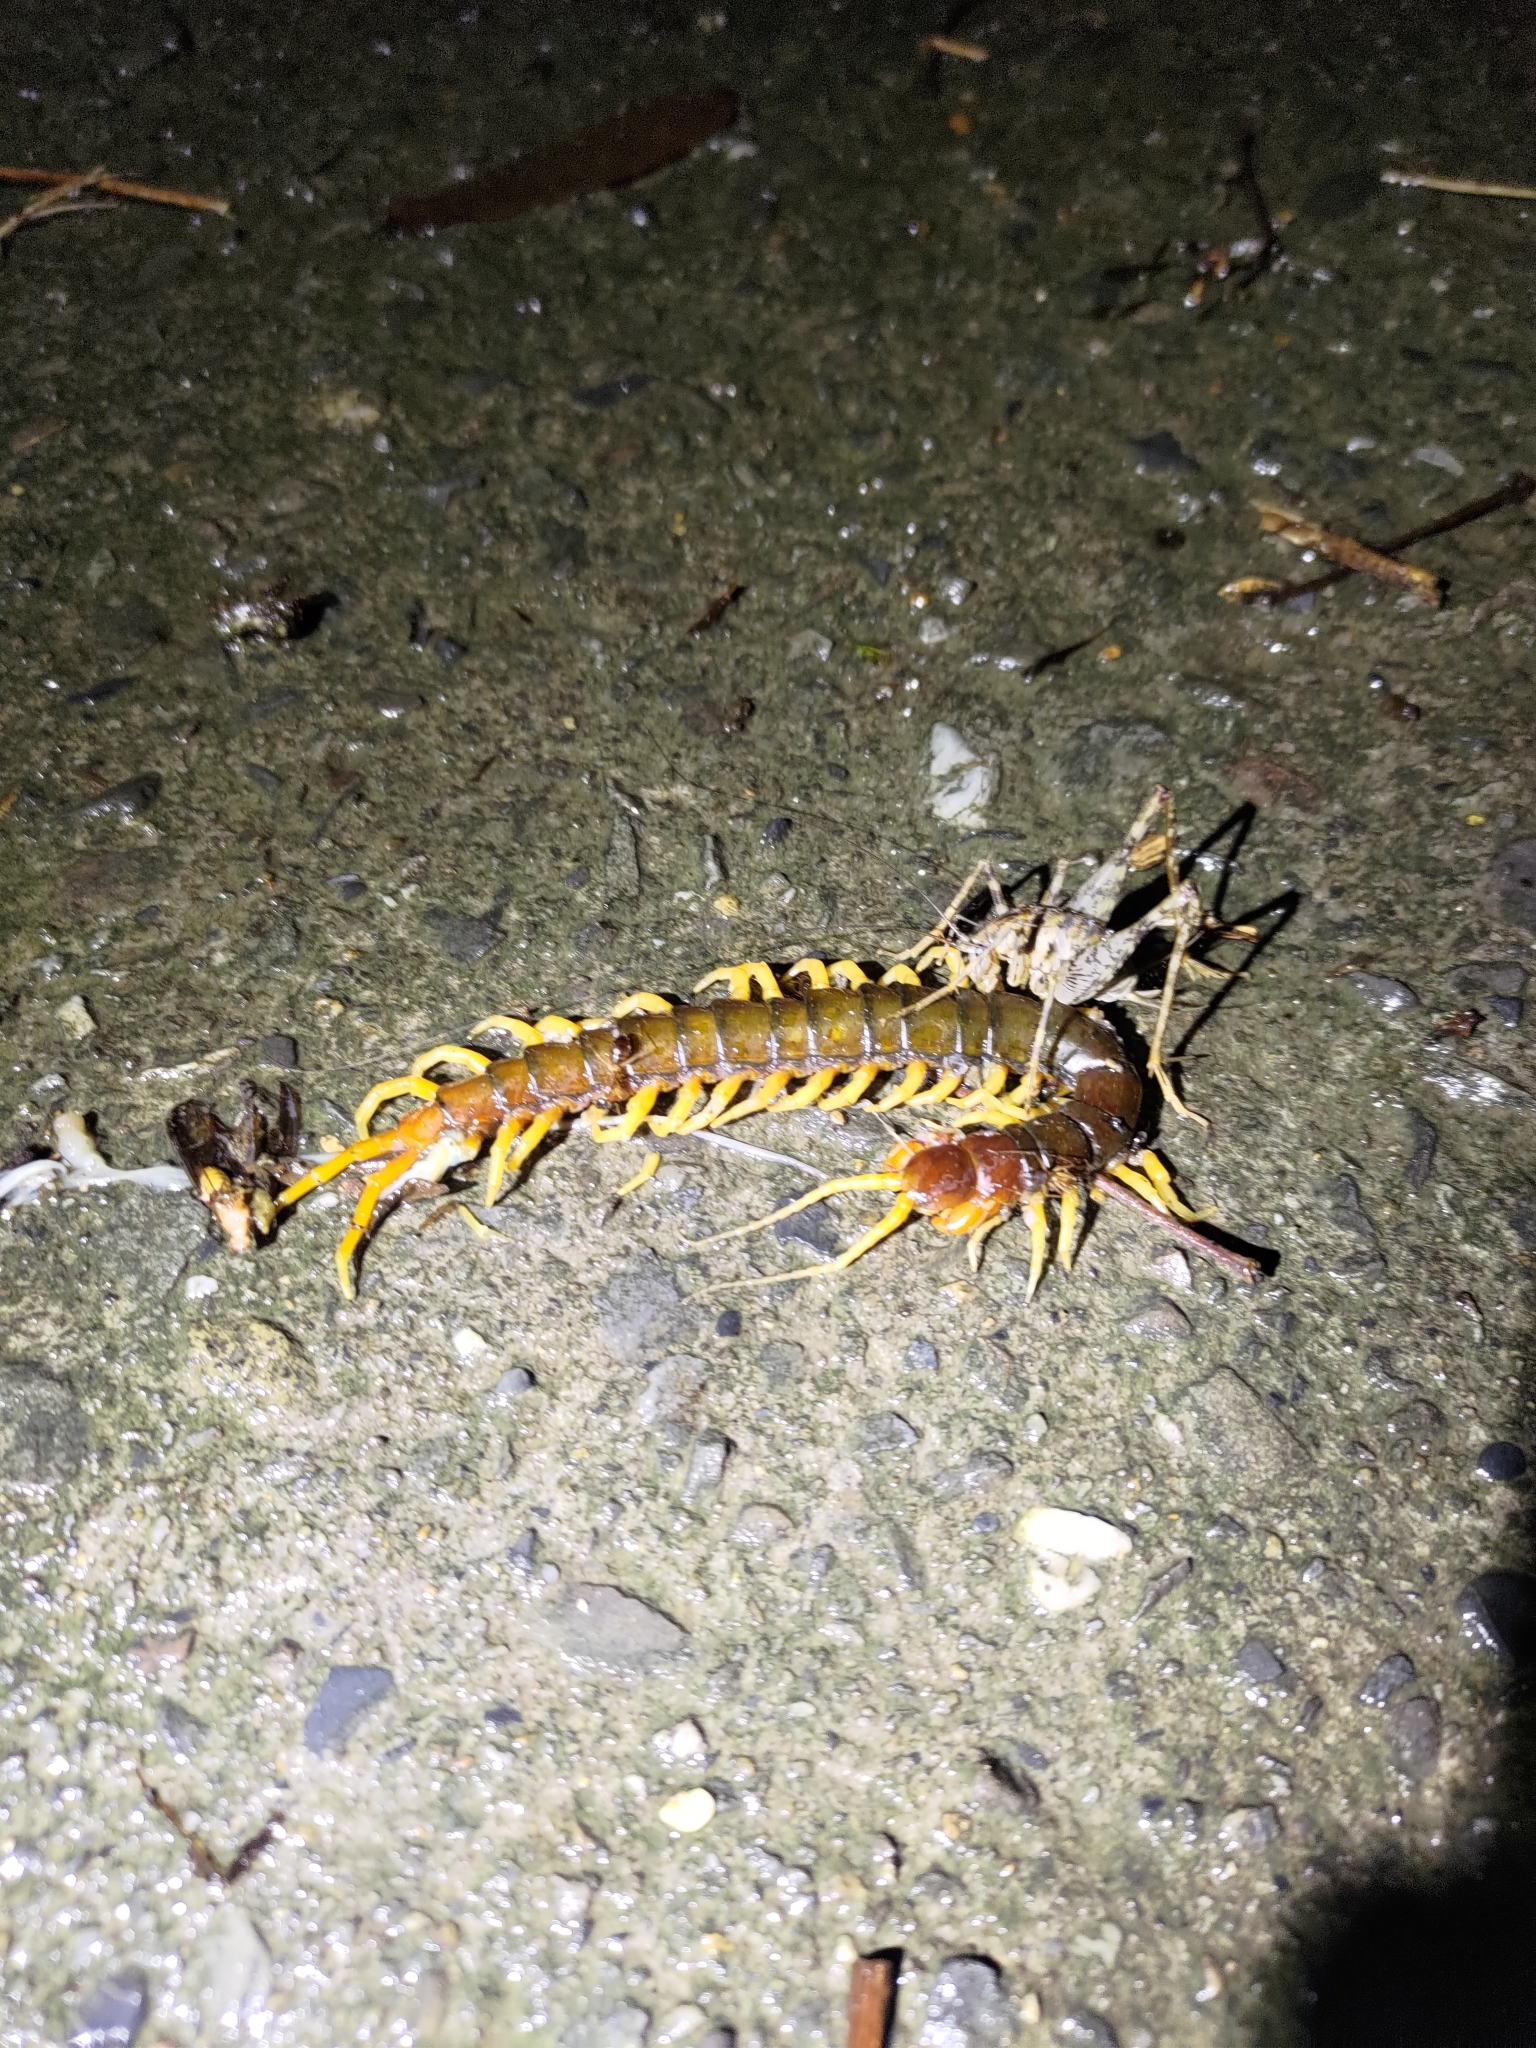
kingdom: Animalia
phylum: Arthropoda
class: Chilopoda
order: Scolopendromorpha
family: Scolopendridae
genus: Scolopendra
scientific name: Scolopendra mutilans
